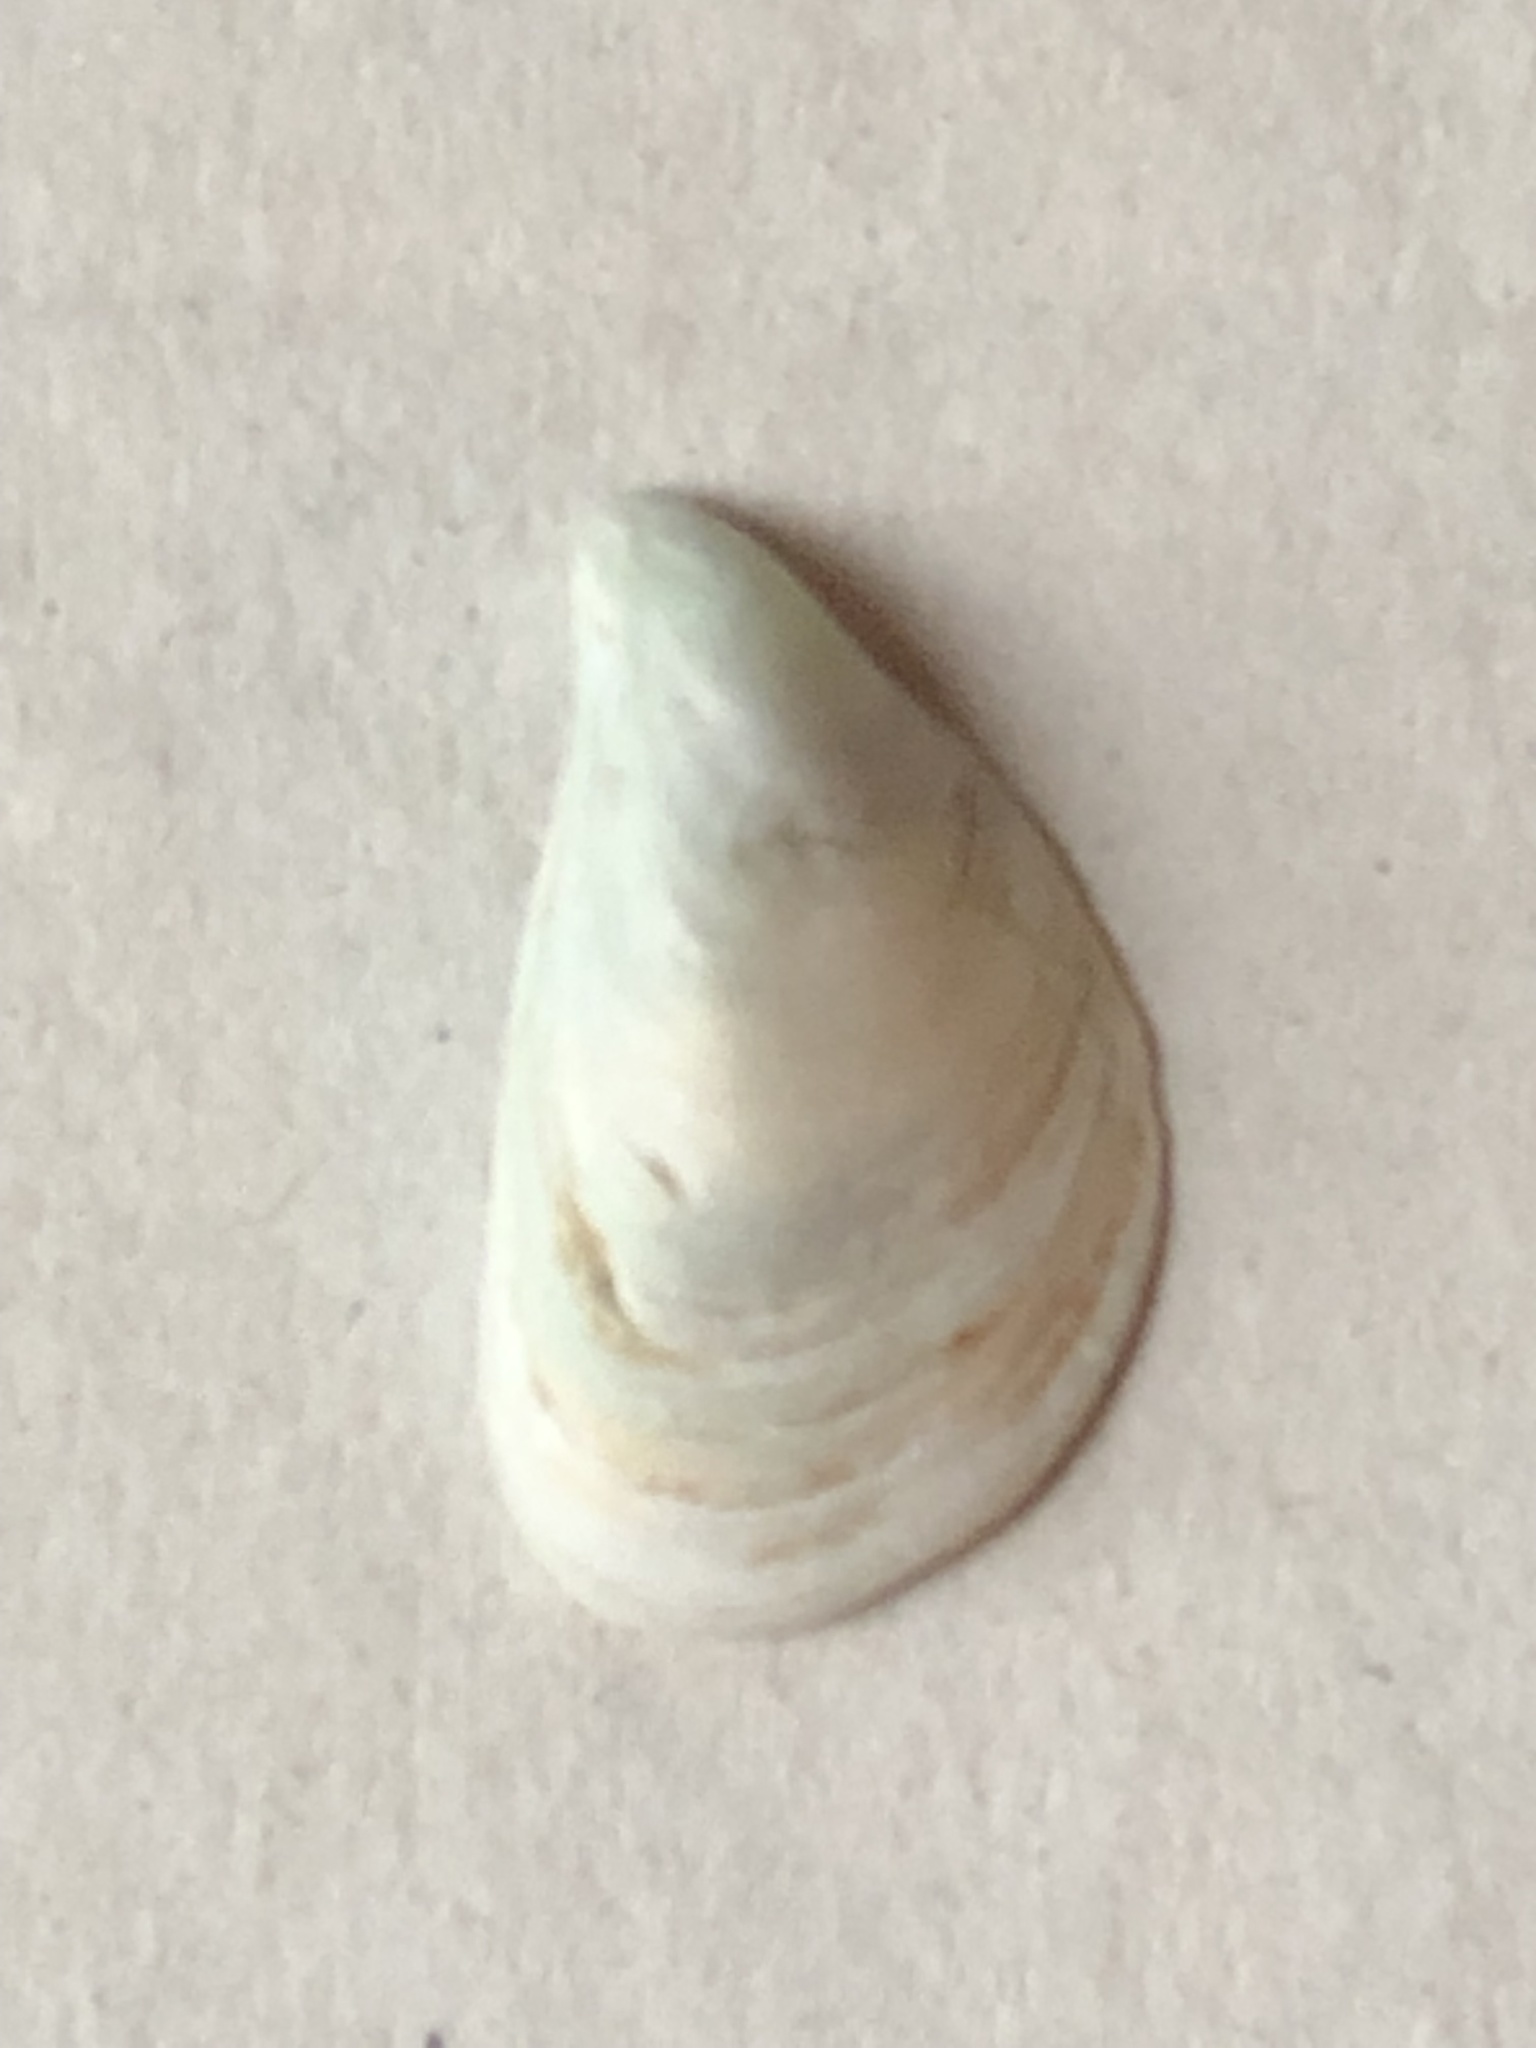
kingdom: Animalia
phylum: Mollusca
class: Bivalvia
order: Myida
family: Dreissenidae
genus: Dreissena
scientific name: Dreissena bugensis
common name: Quagga mussel
